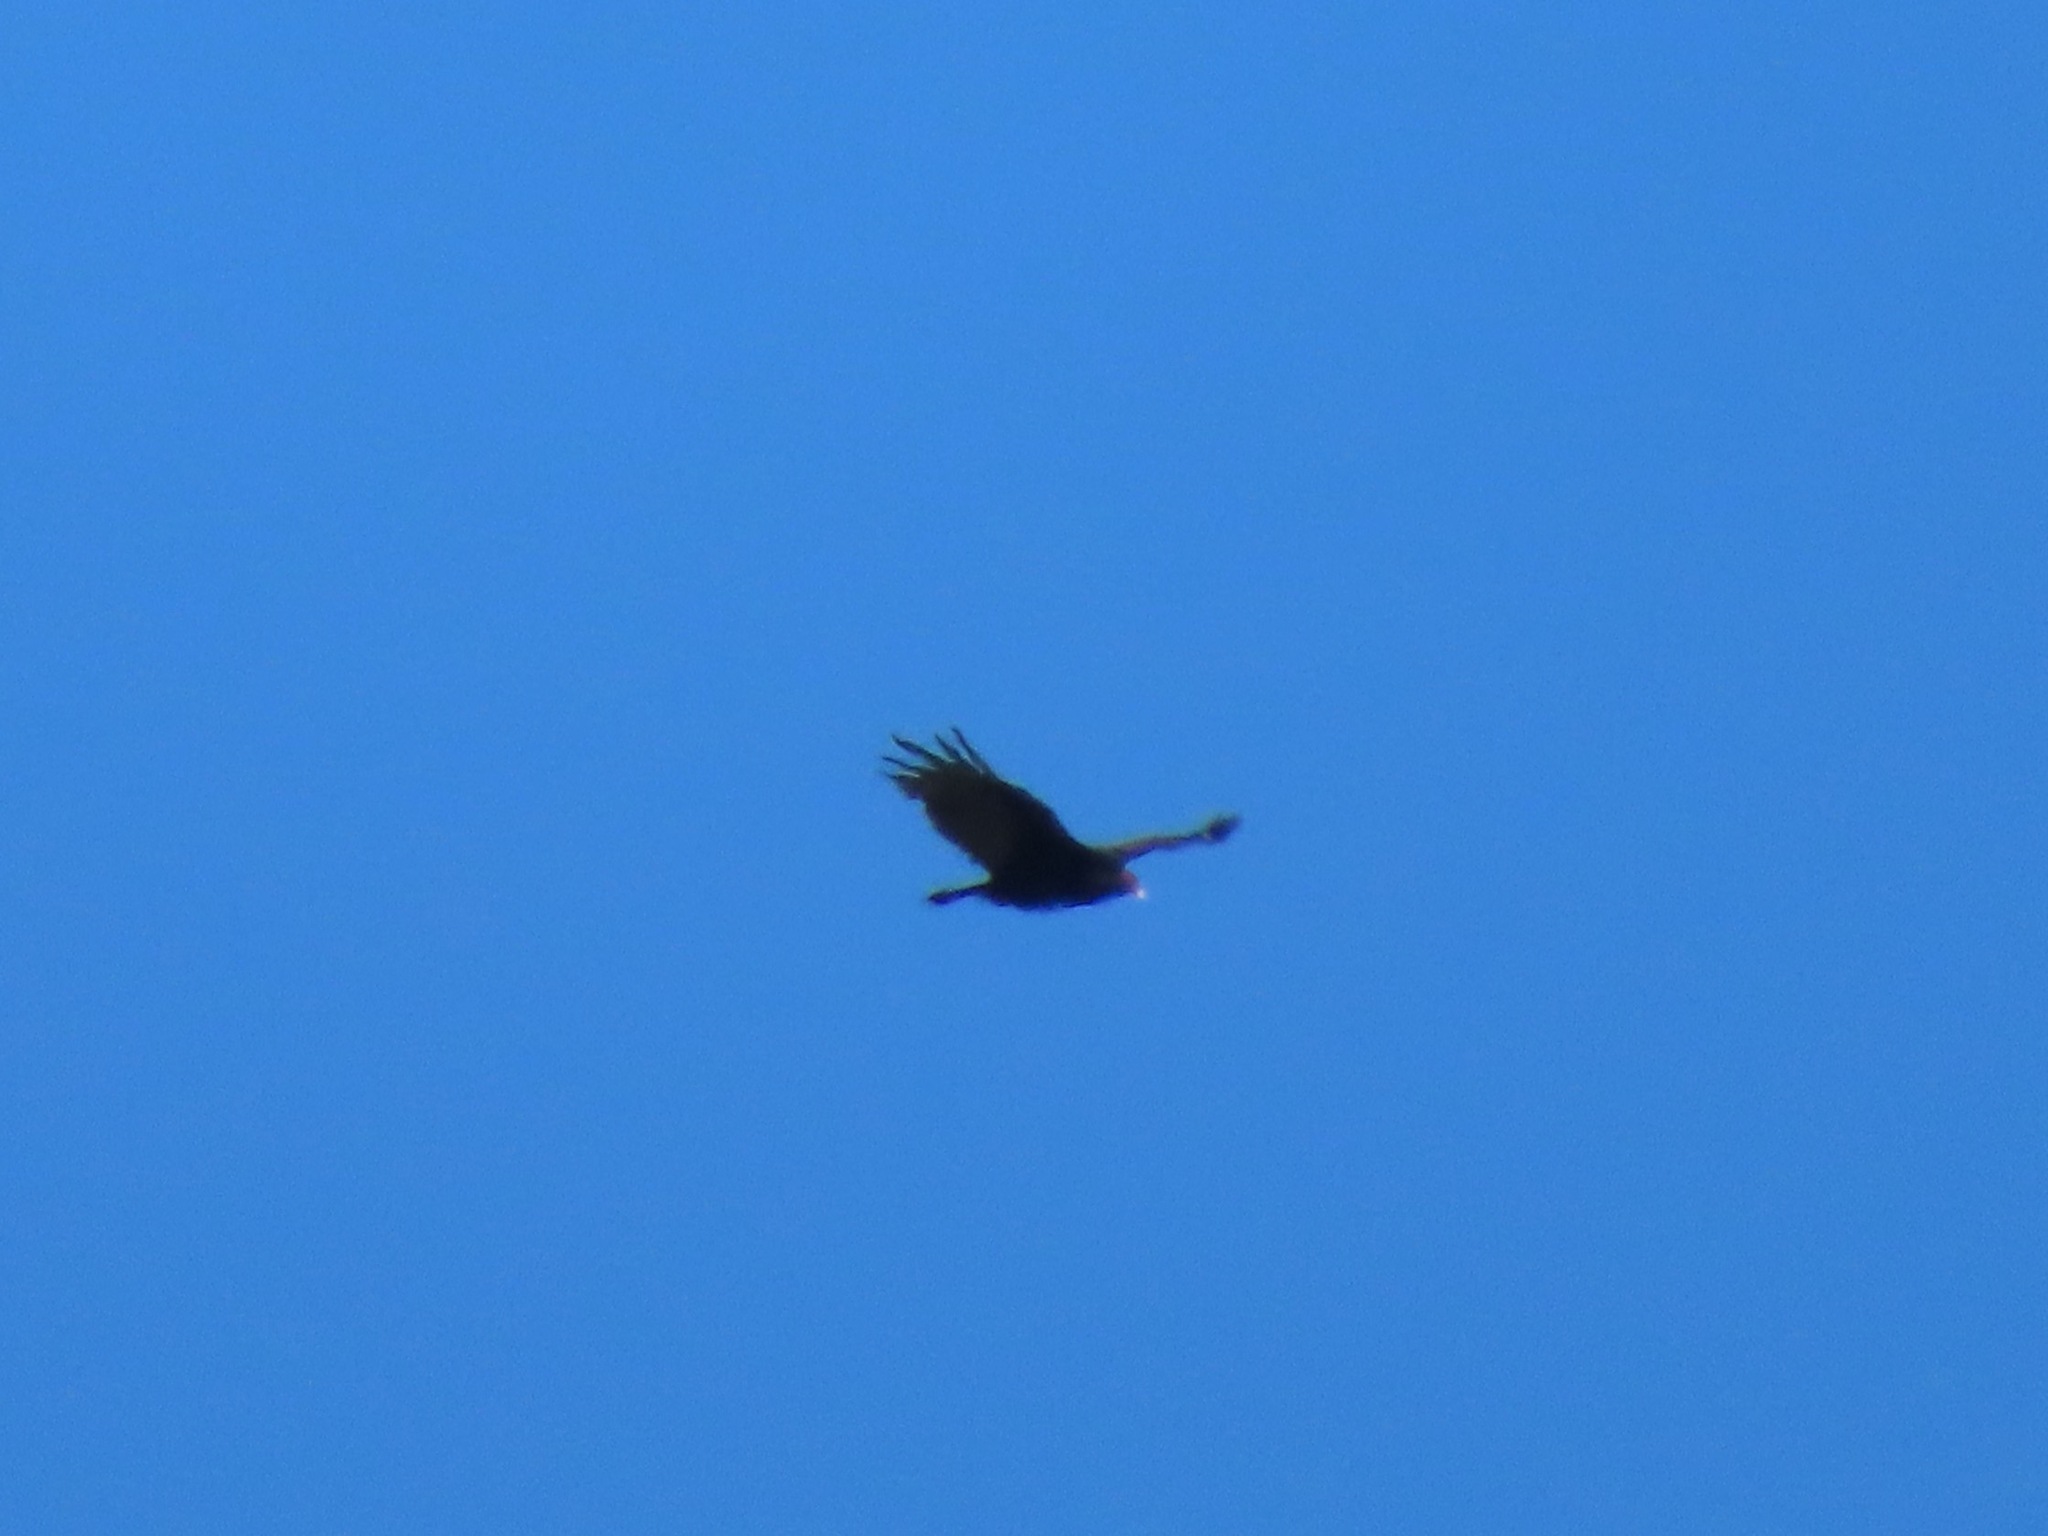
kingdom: Animalia
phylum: Chordata
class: Aves
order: Accipitriformes
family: Cathartidae
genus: Cathartes
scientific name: Cathartes aura
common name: Turkey vulture
